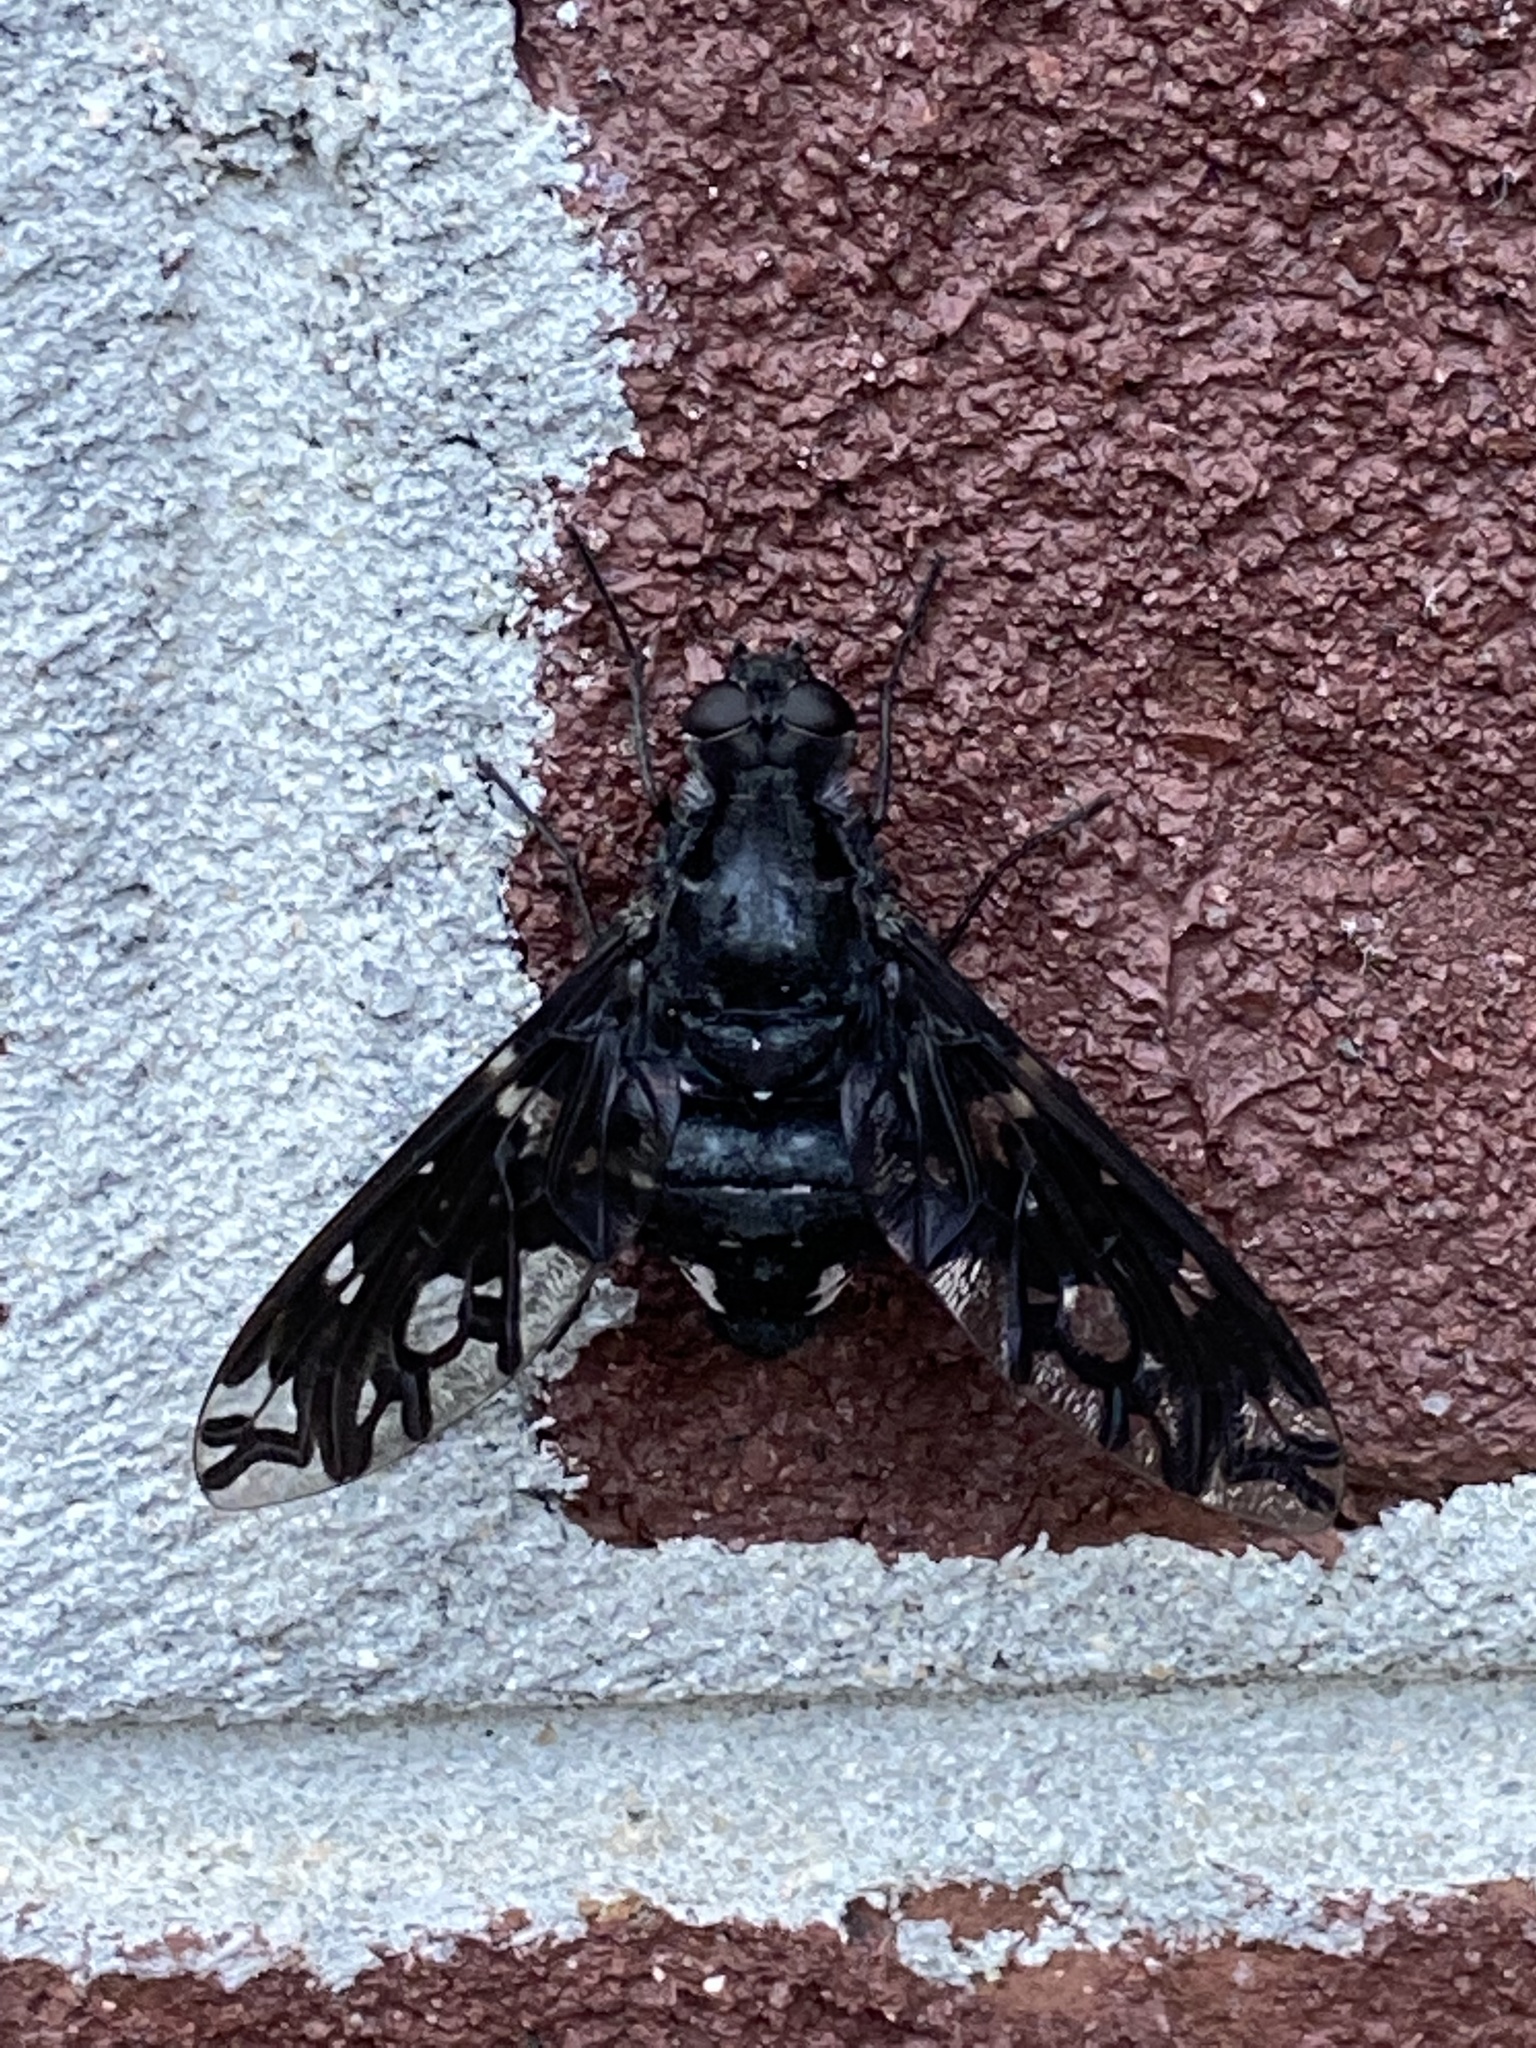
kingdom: Animalia
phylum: Arthropoda
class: Insecta
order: Diptera
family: Bombyliidae
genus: Xenox
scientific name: Xenox tigrinus
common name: Tiger bee fly
